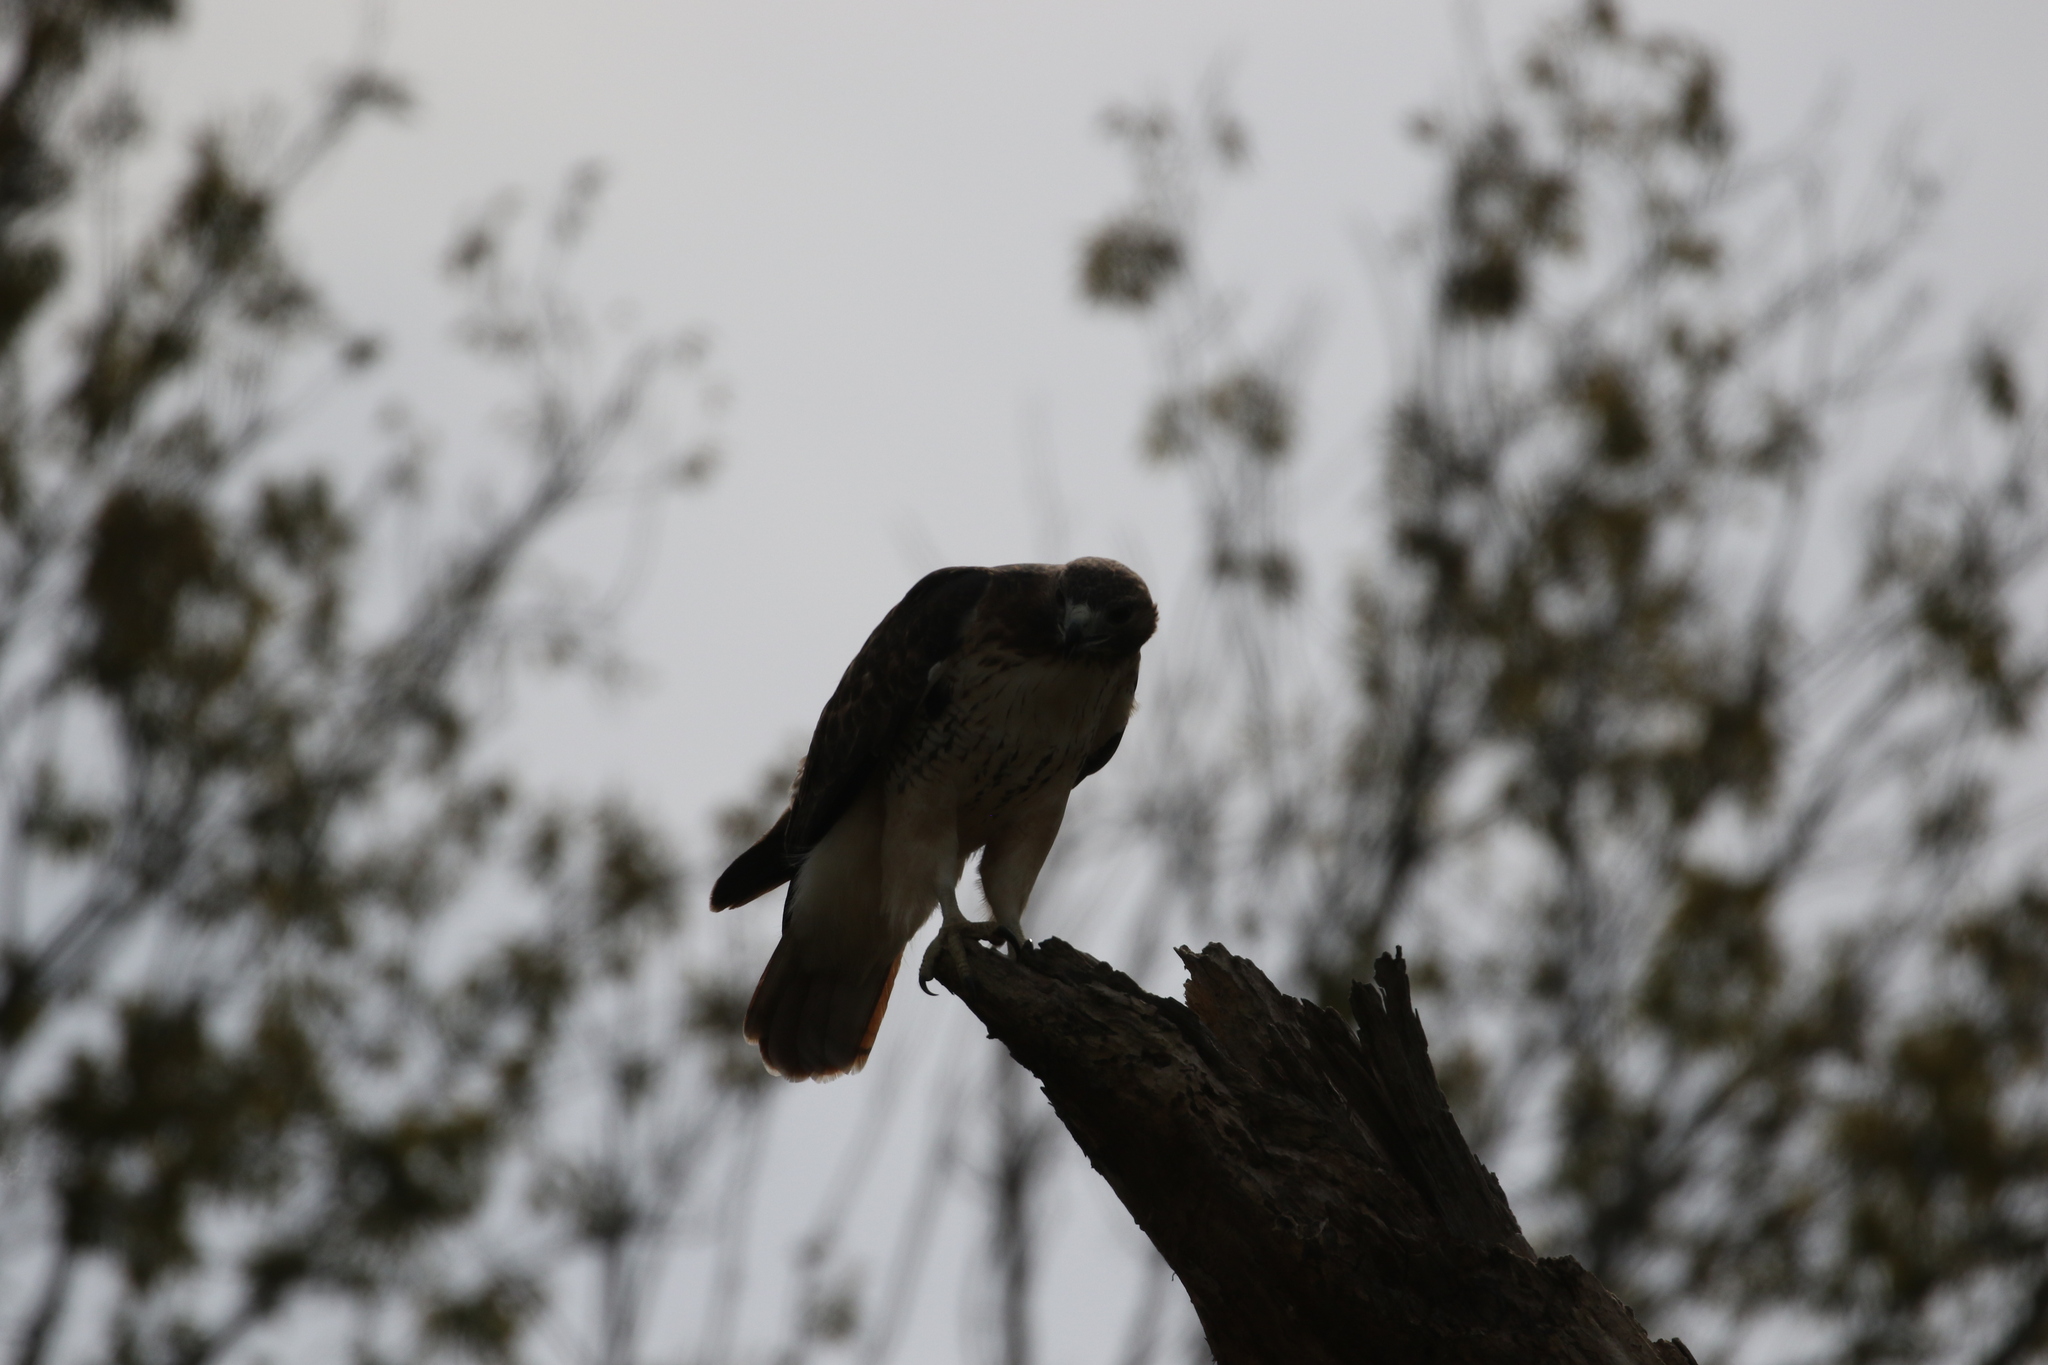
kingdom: Animalia
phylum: Chordata
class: Aves
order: Accipitriformes
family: Accipitridae
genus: Buteo
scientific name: Buteo jamaicensis
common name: Red-tailed hawk
